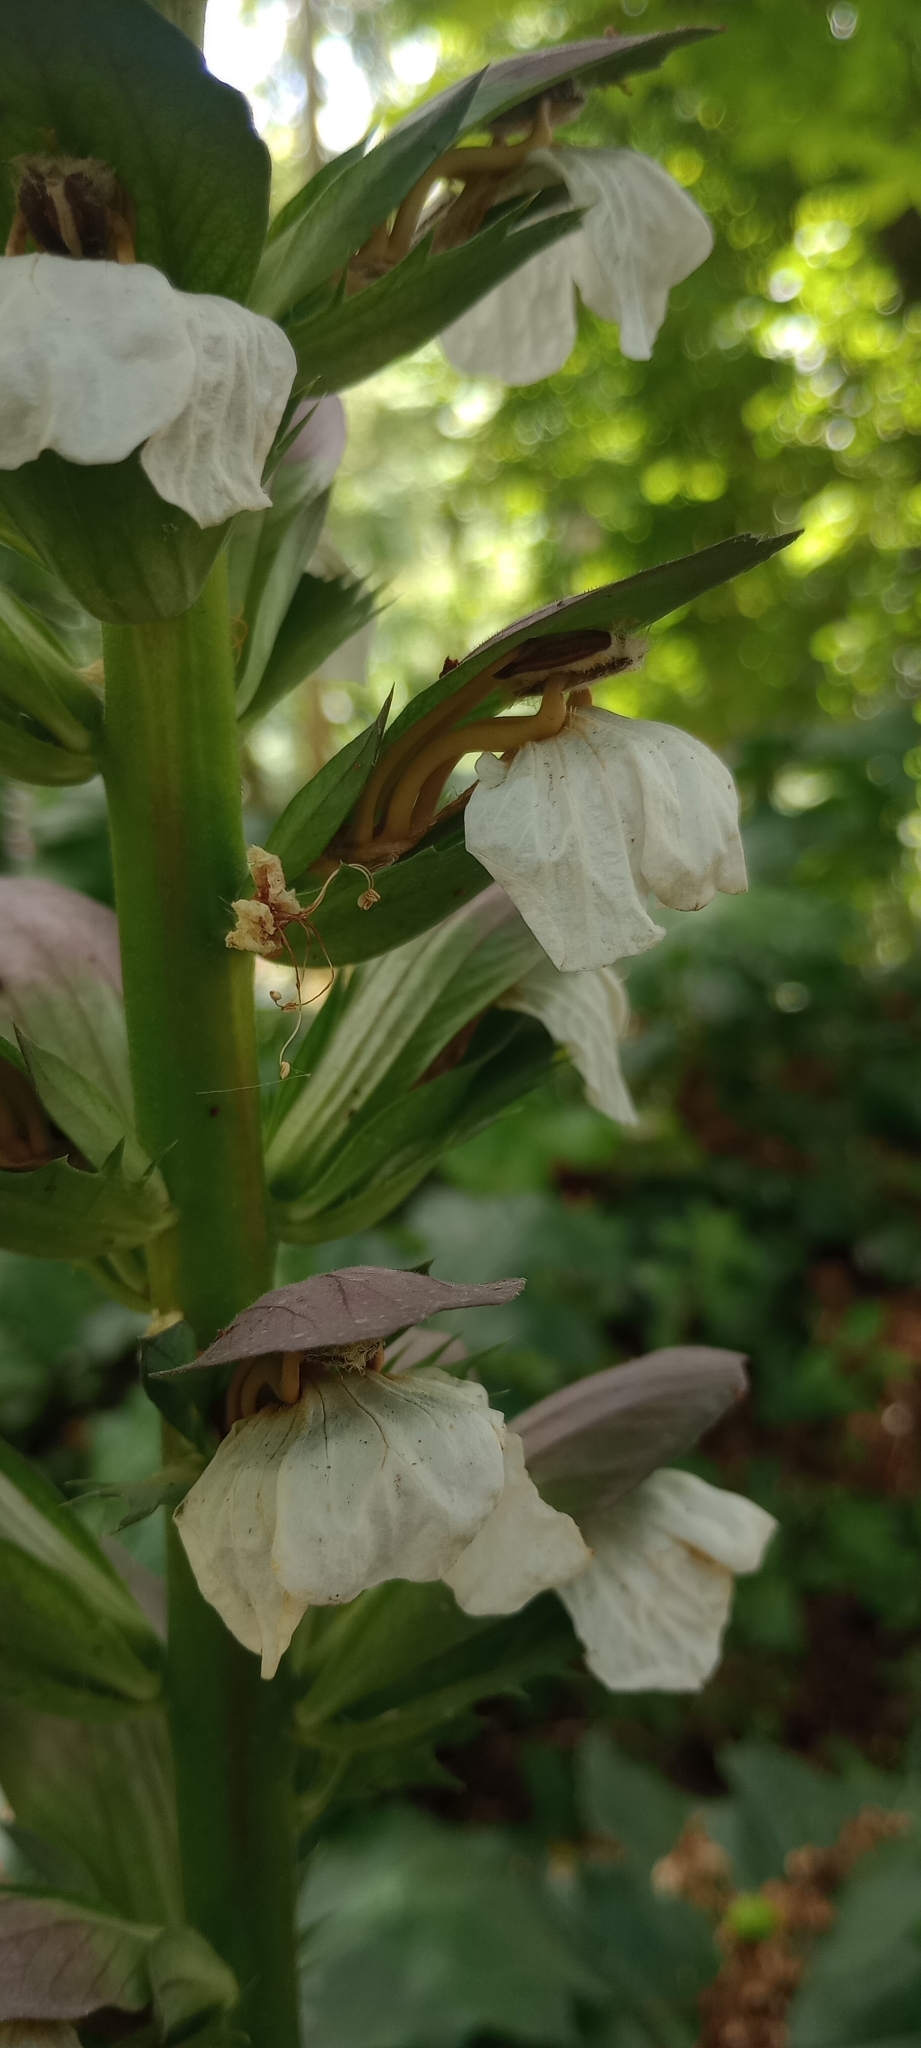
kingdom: Plantae
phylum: Tracheophyta
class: Magnoliopsida
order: Lamiales
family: Acanthaceae
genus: Acanthus
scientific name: Acanthus mollis
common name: Bear's-breech
